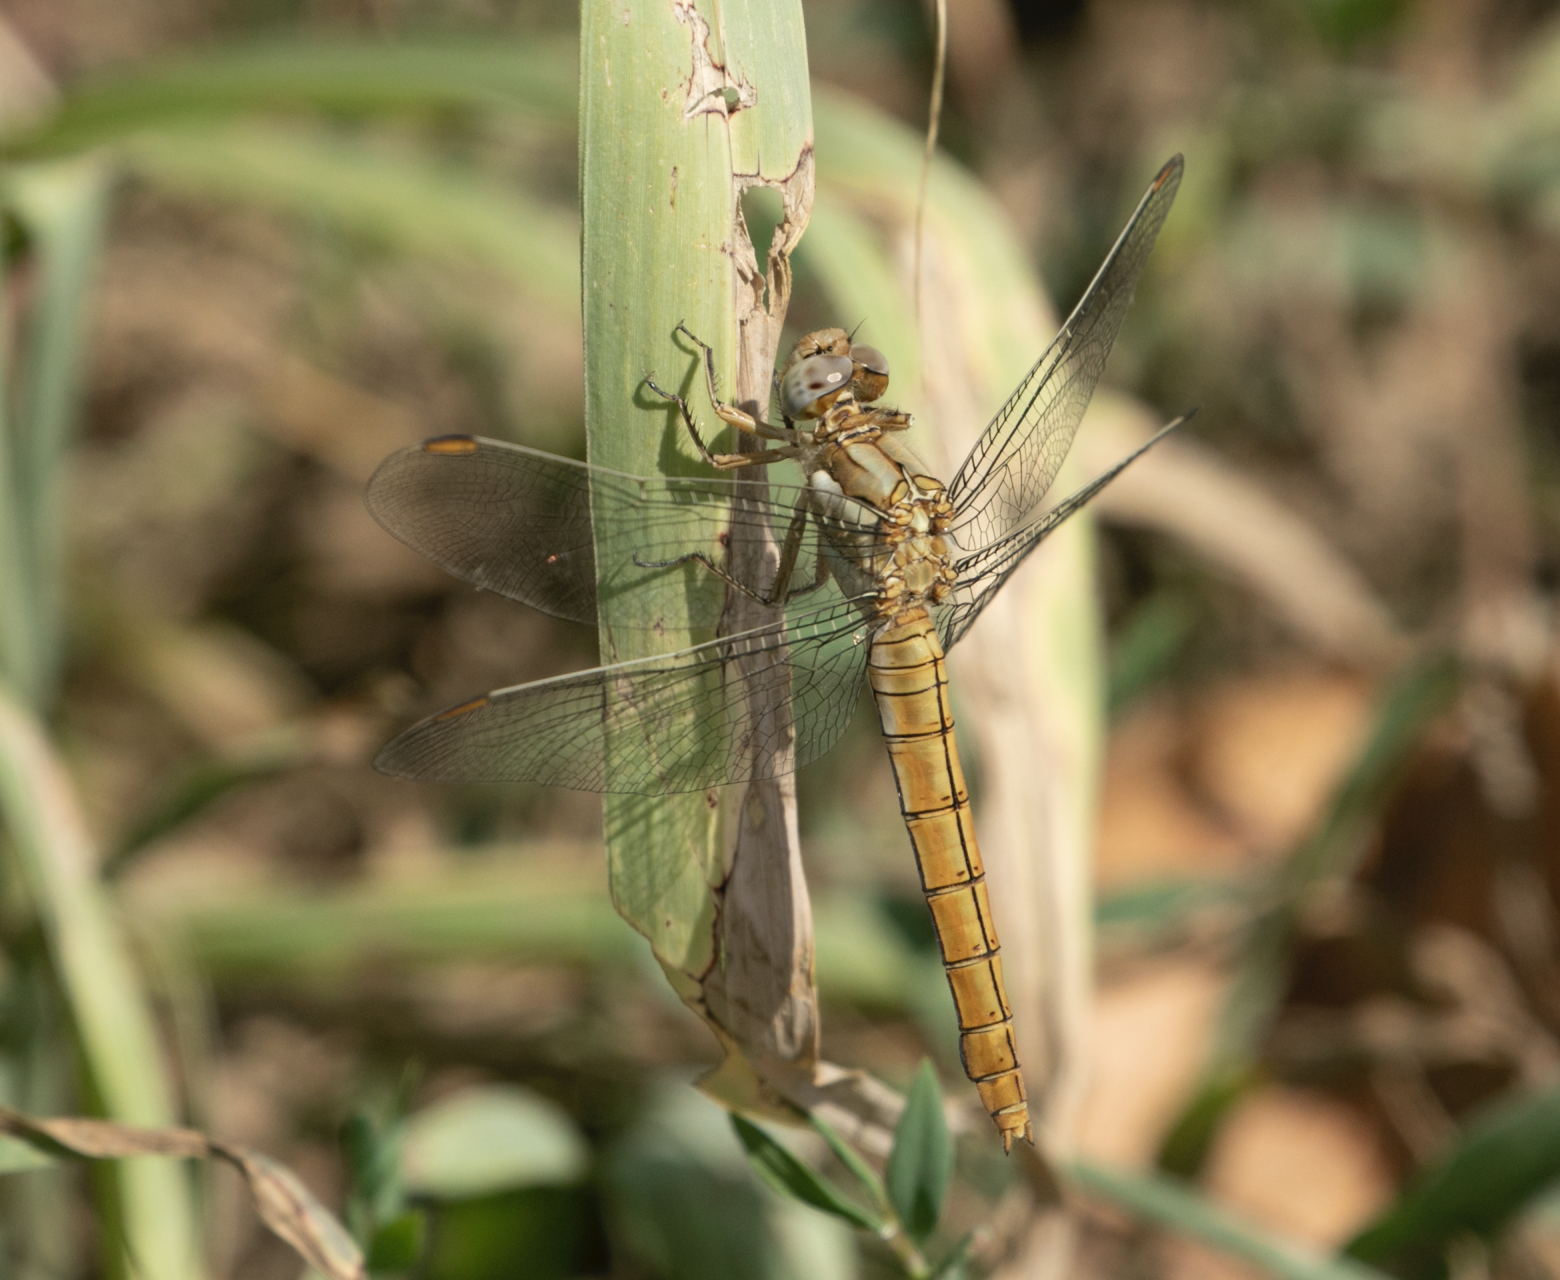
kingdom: Animalia
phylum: Arthropoda
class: Insecta
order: Odonata
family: Libellulidae
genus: Orthetrum
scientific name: Orthetrum brunneum
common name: Southern skimmer
